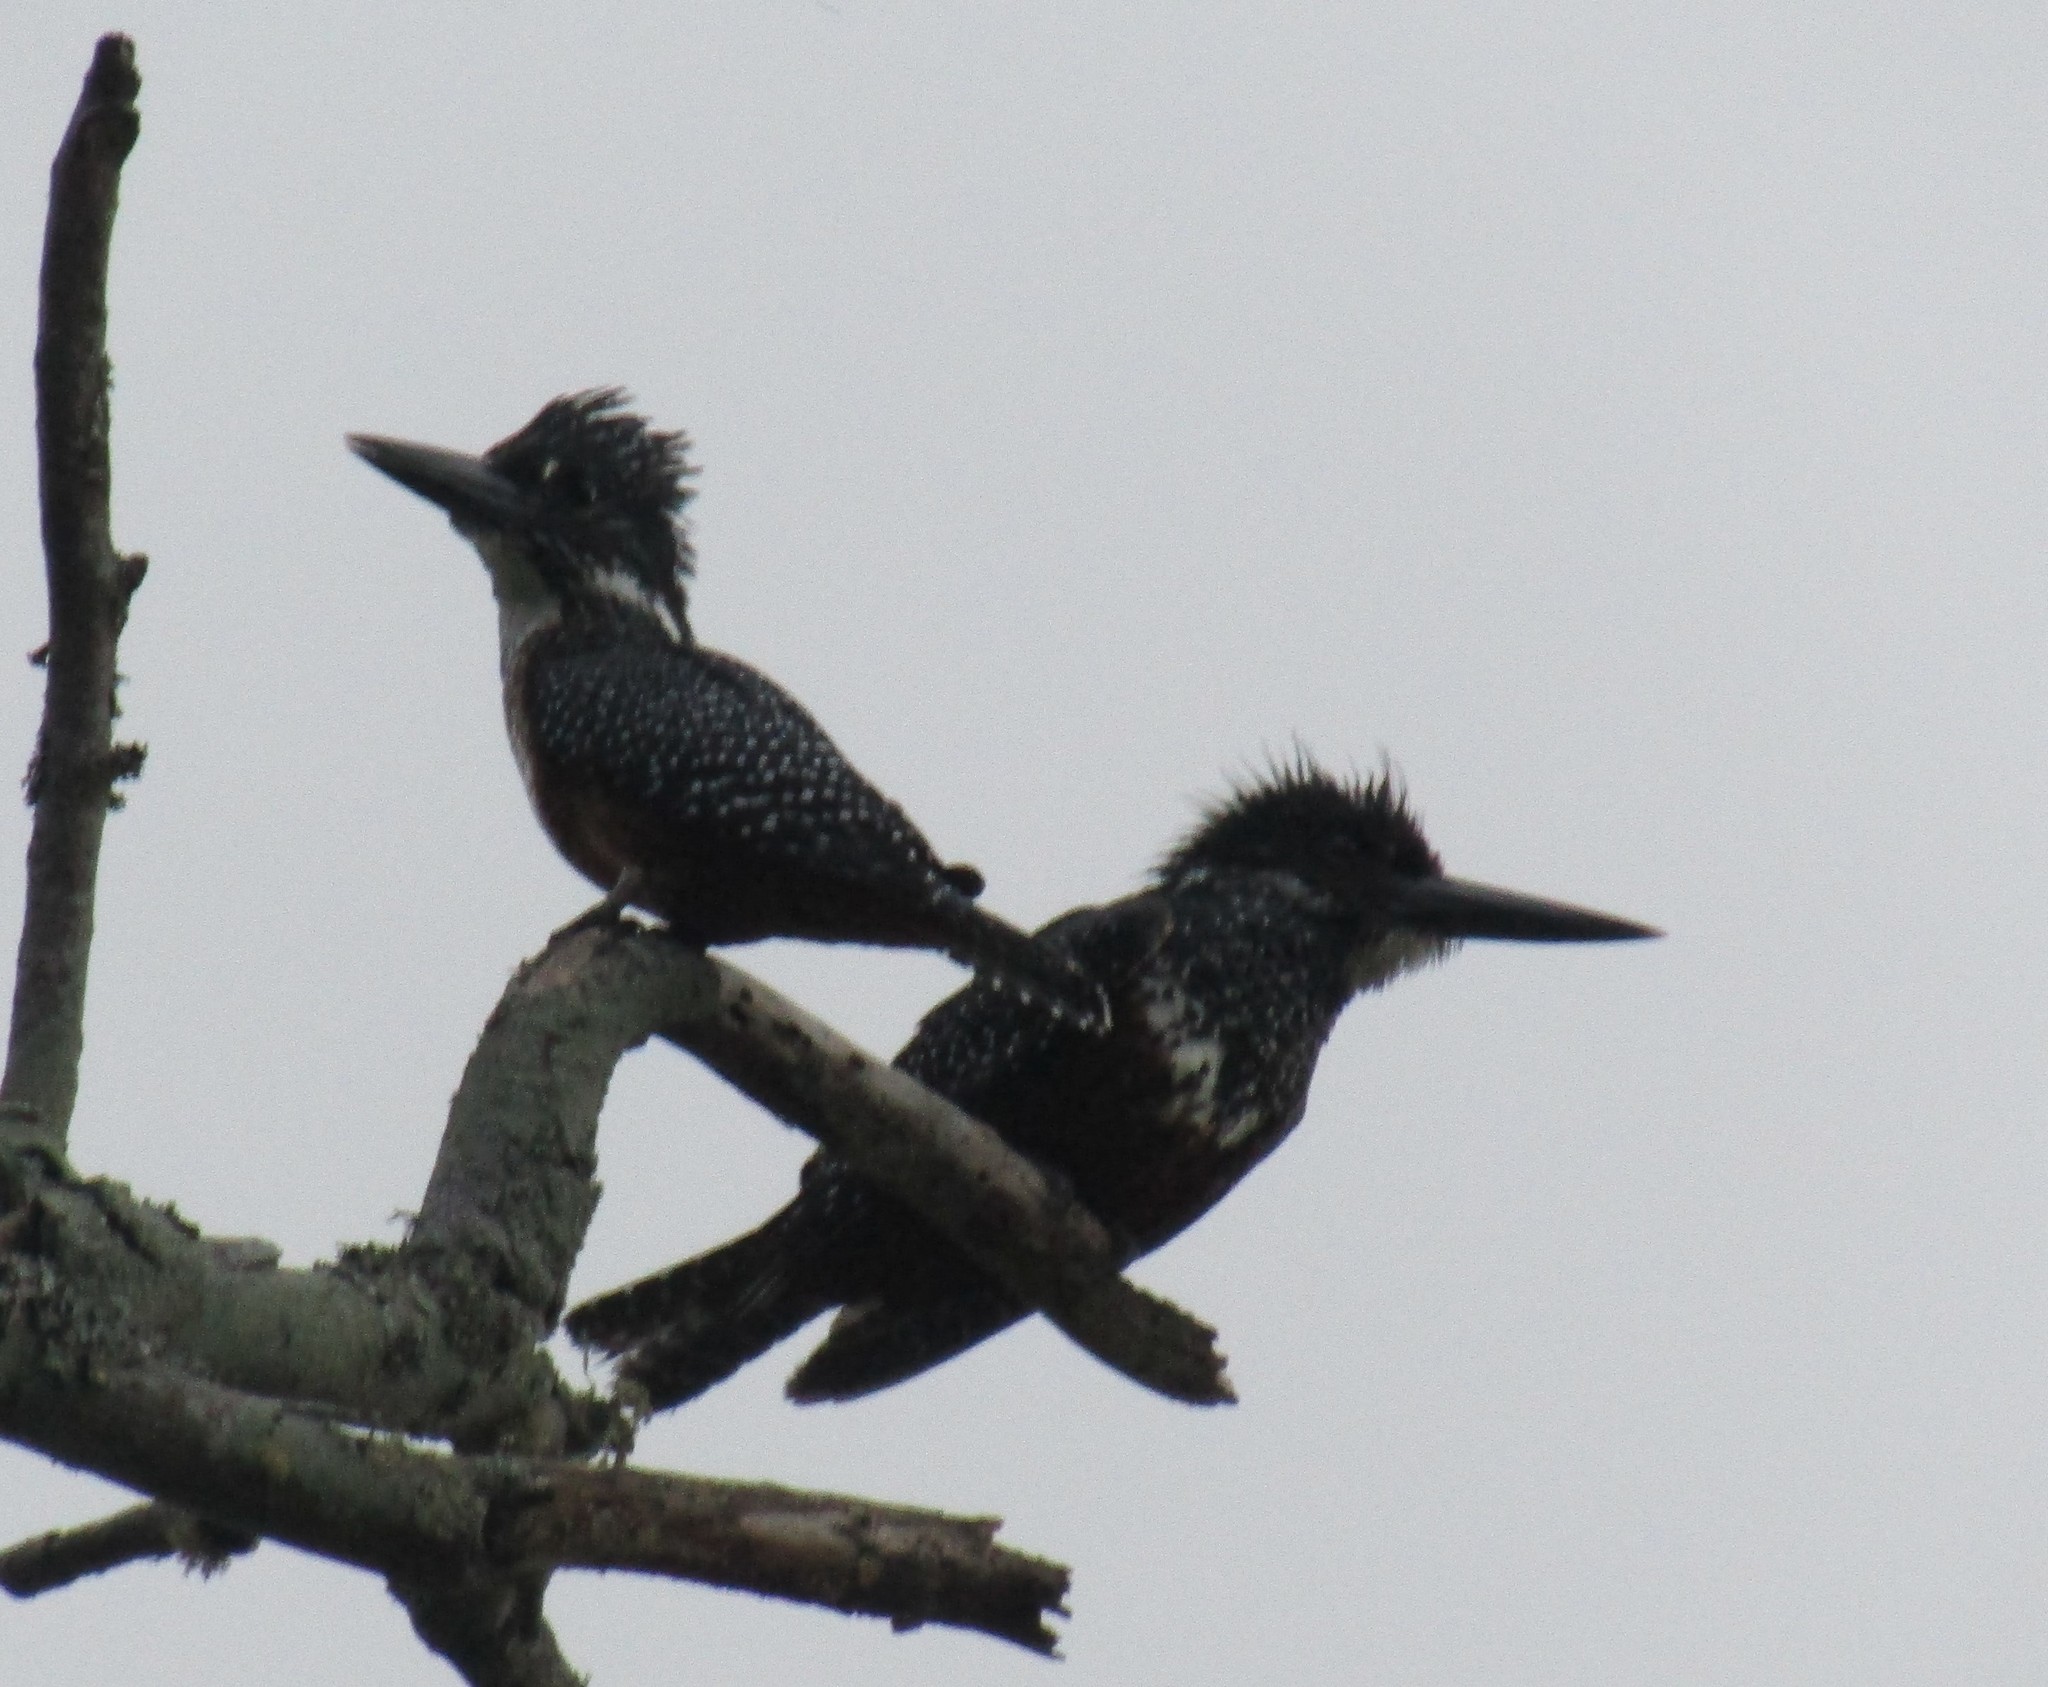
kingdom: Animalia
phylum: Chordata
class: Aves
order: Coraciiformes
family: Alcedinidae
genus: Megaceryle
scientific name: Megaceryle maxima
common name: Giant kingfisher
